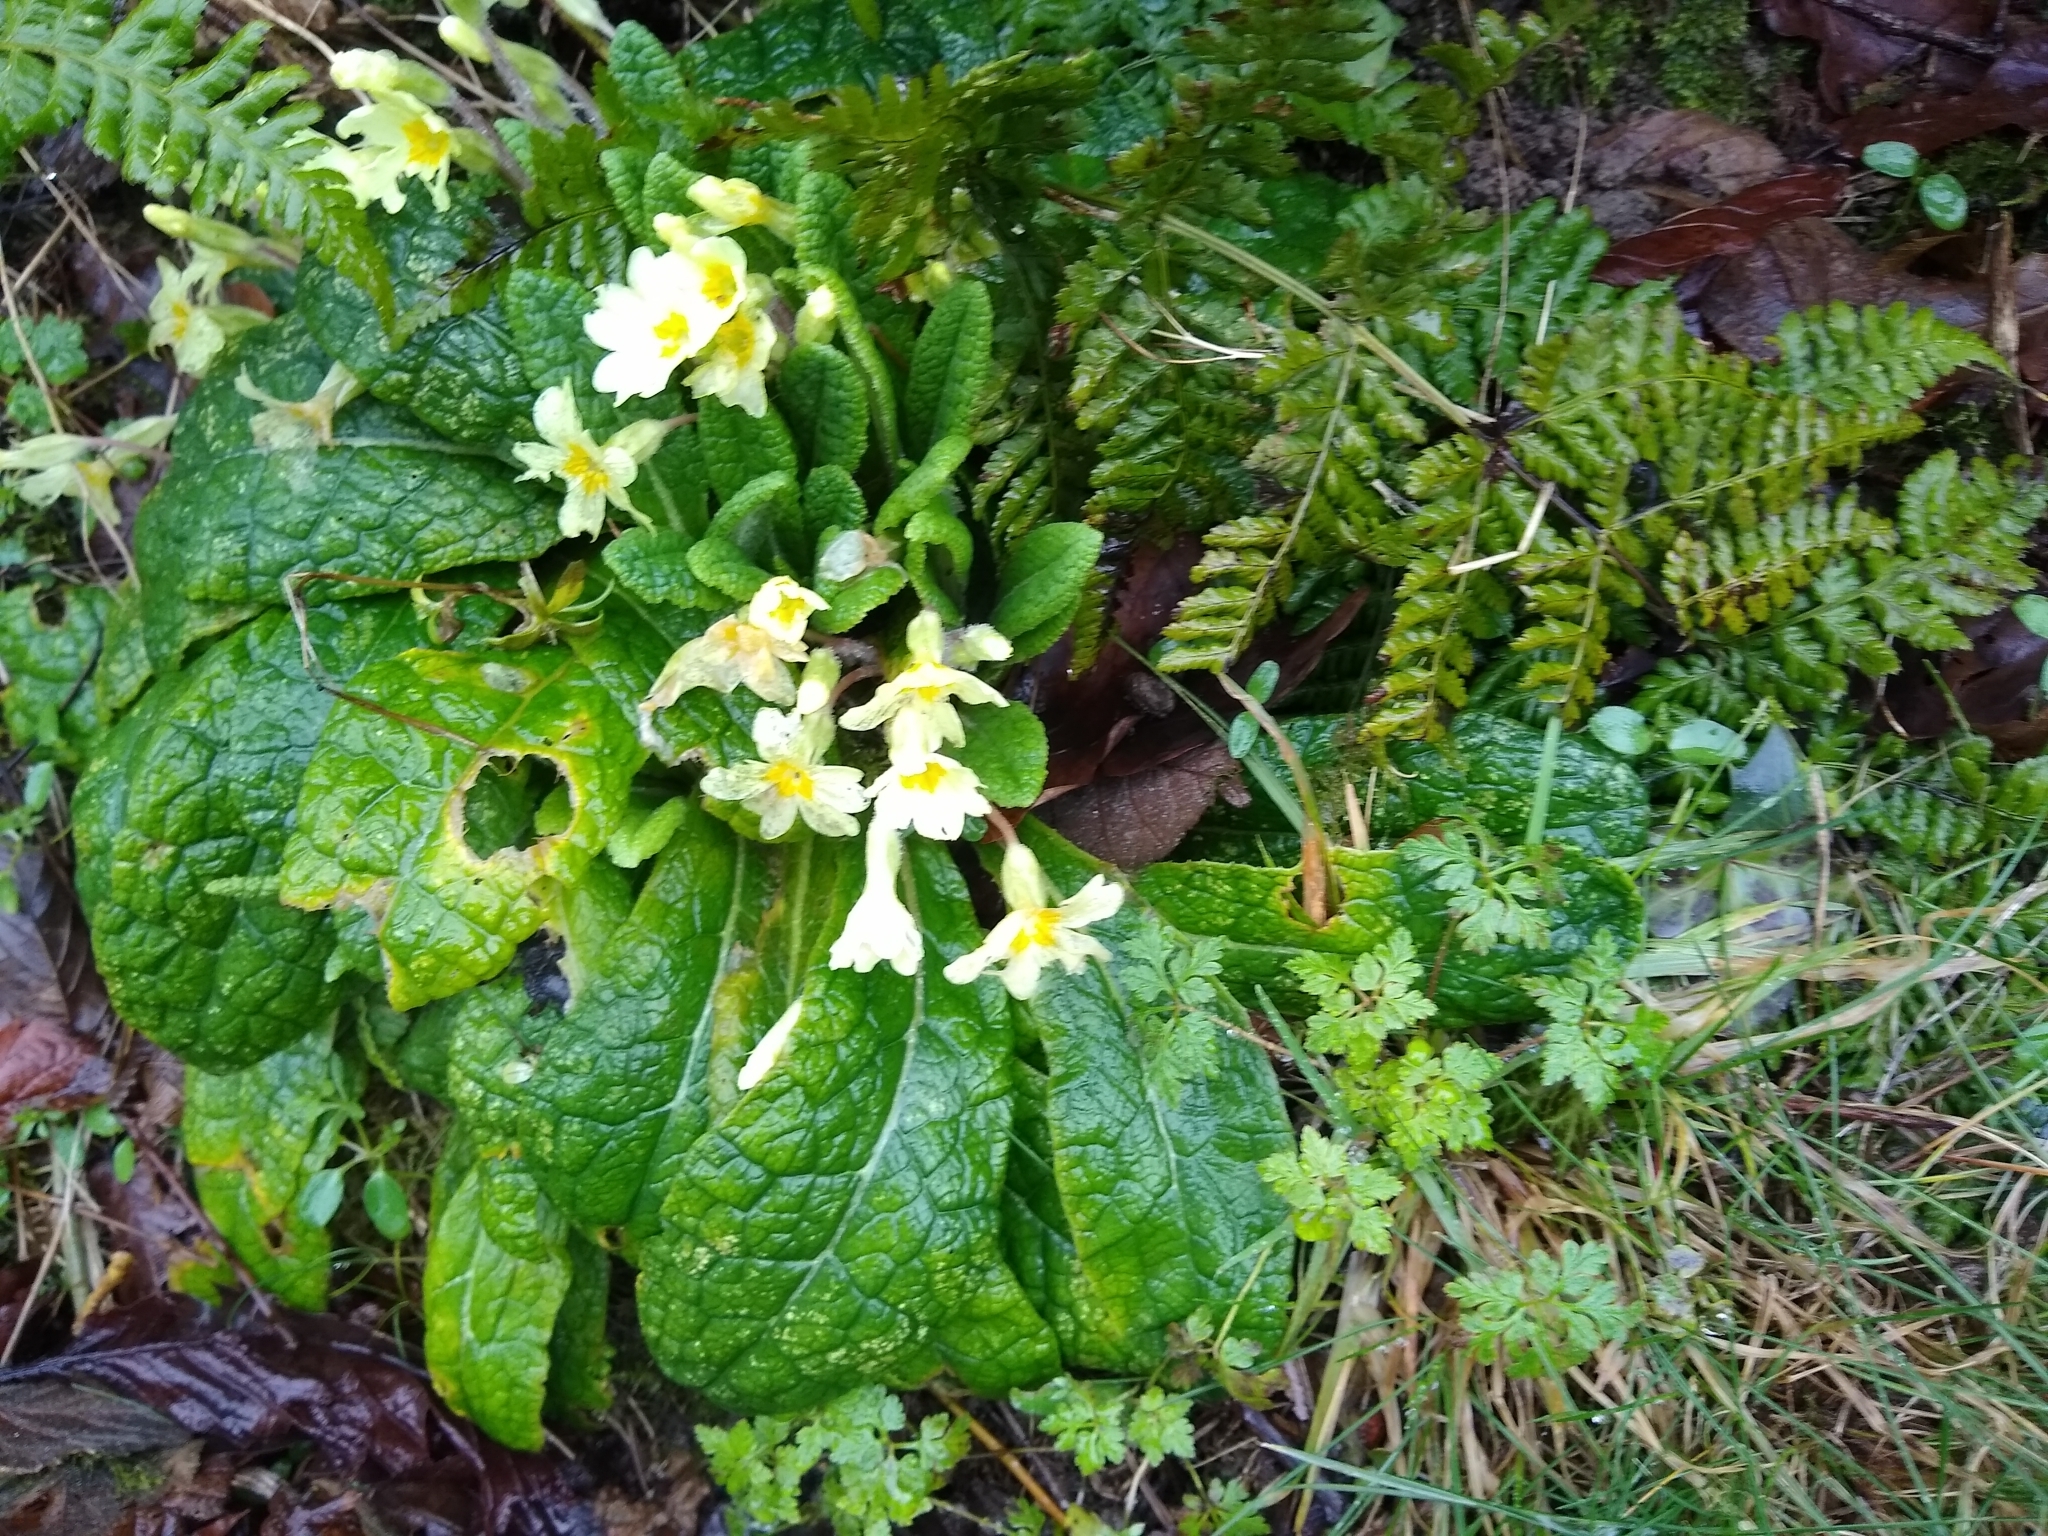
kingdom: Plantae
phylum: Tracheophyta
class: Magnoliopsida
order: Ericales
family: Primulaceae
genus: Primula
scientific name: Primula vulgaris
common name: Primrose
